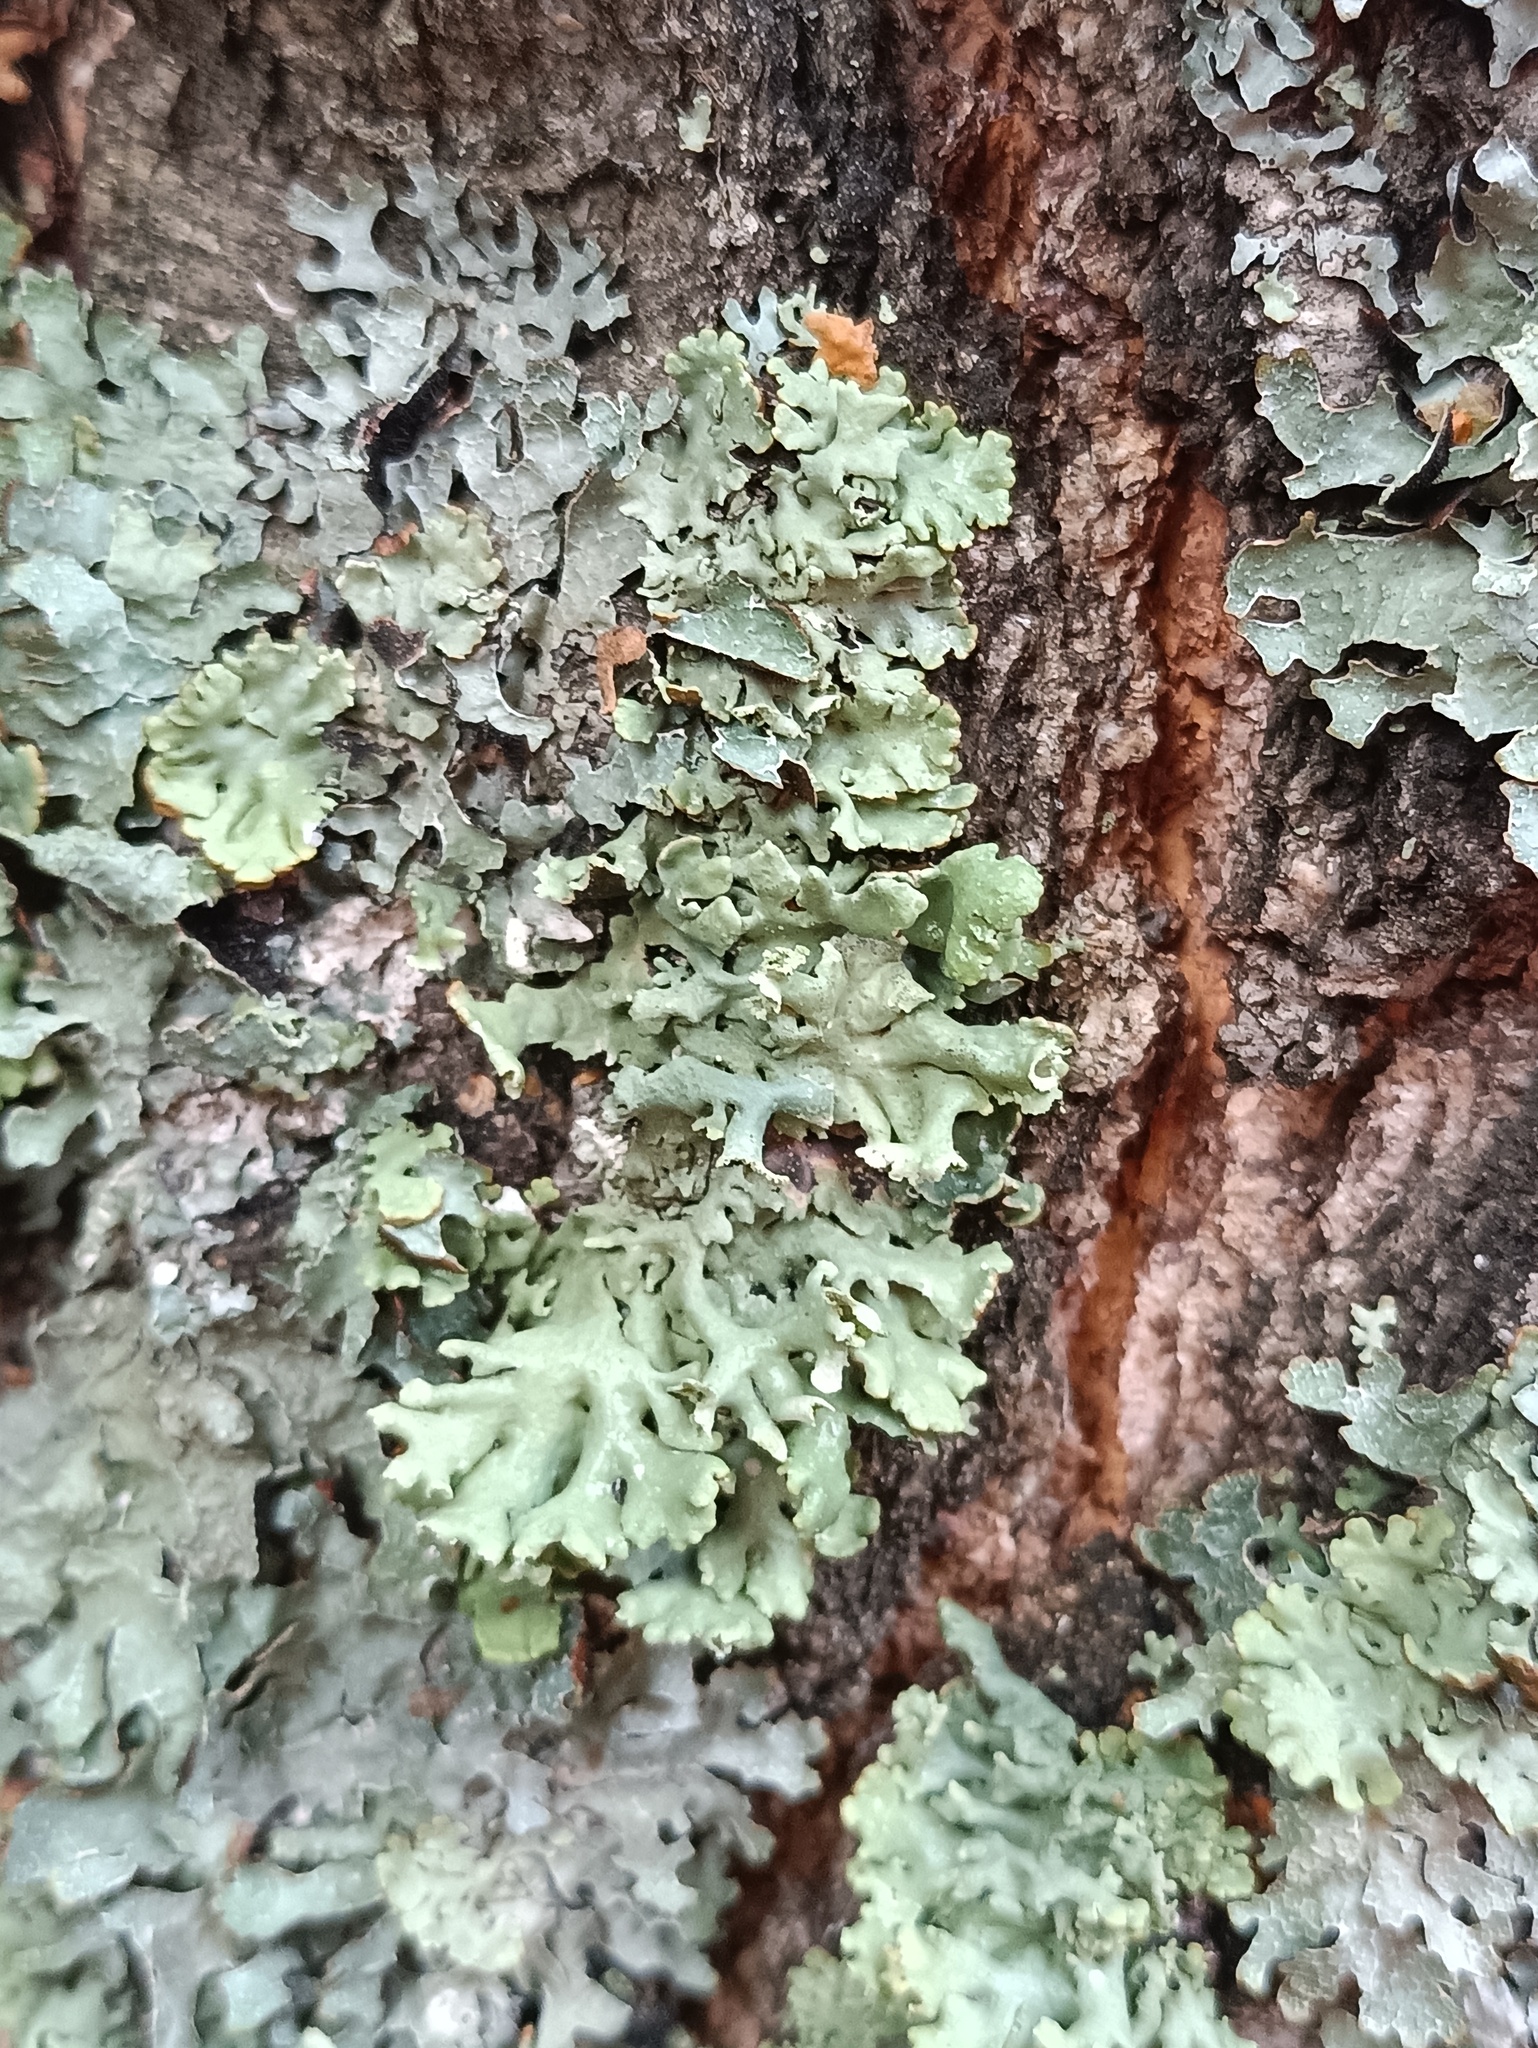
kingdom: Fungi
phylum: Ascomycota
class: Lecanoromycetes
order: Lecanorales
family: Parmeliaceae
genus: Hypogymnia
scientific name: Hypogymnia physodes
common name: Dark crottle
